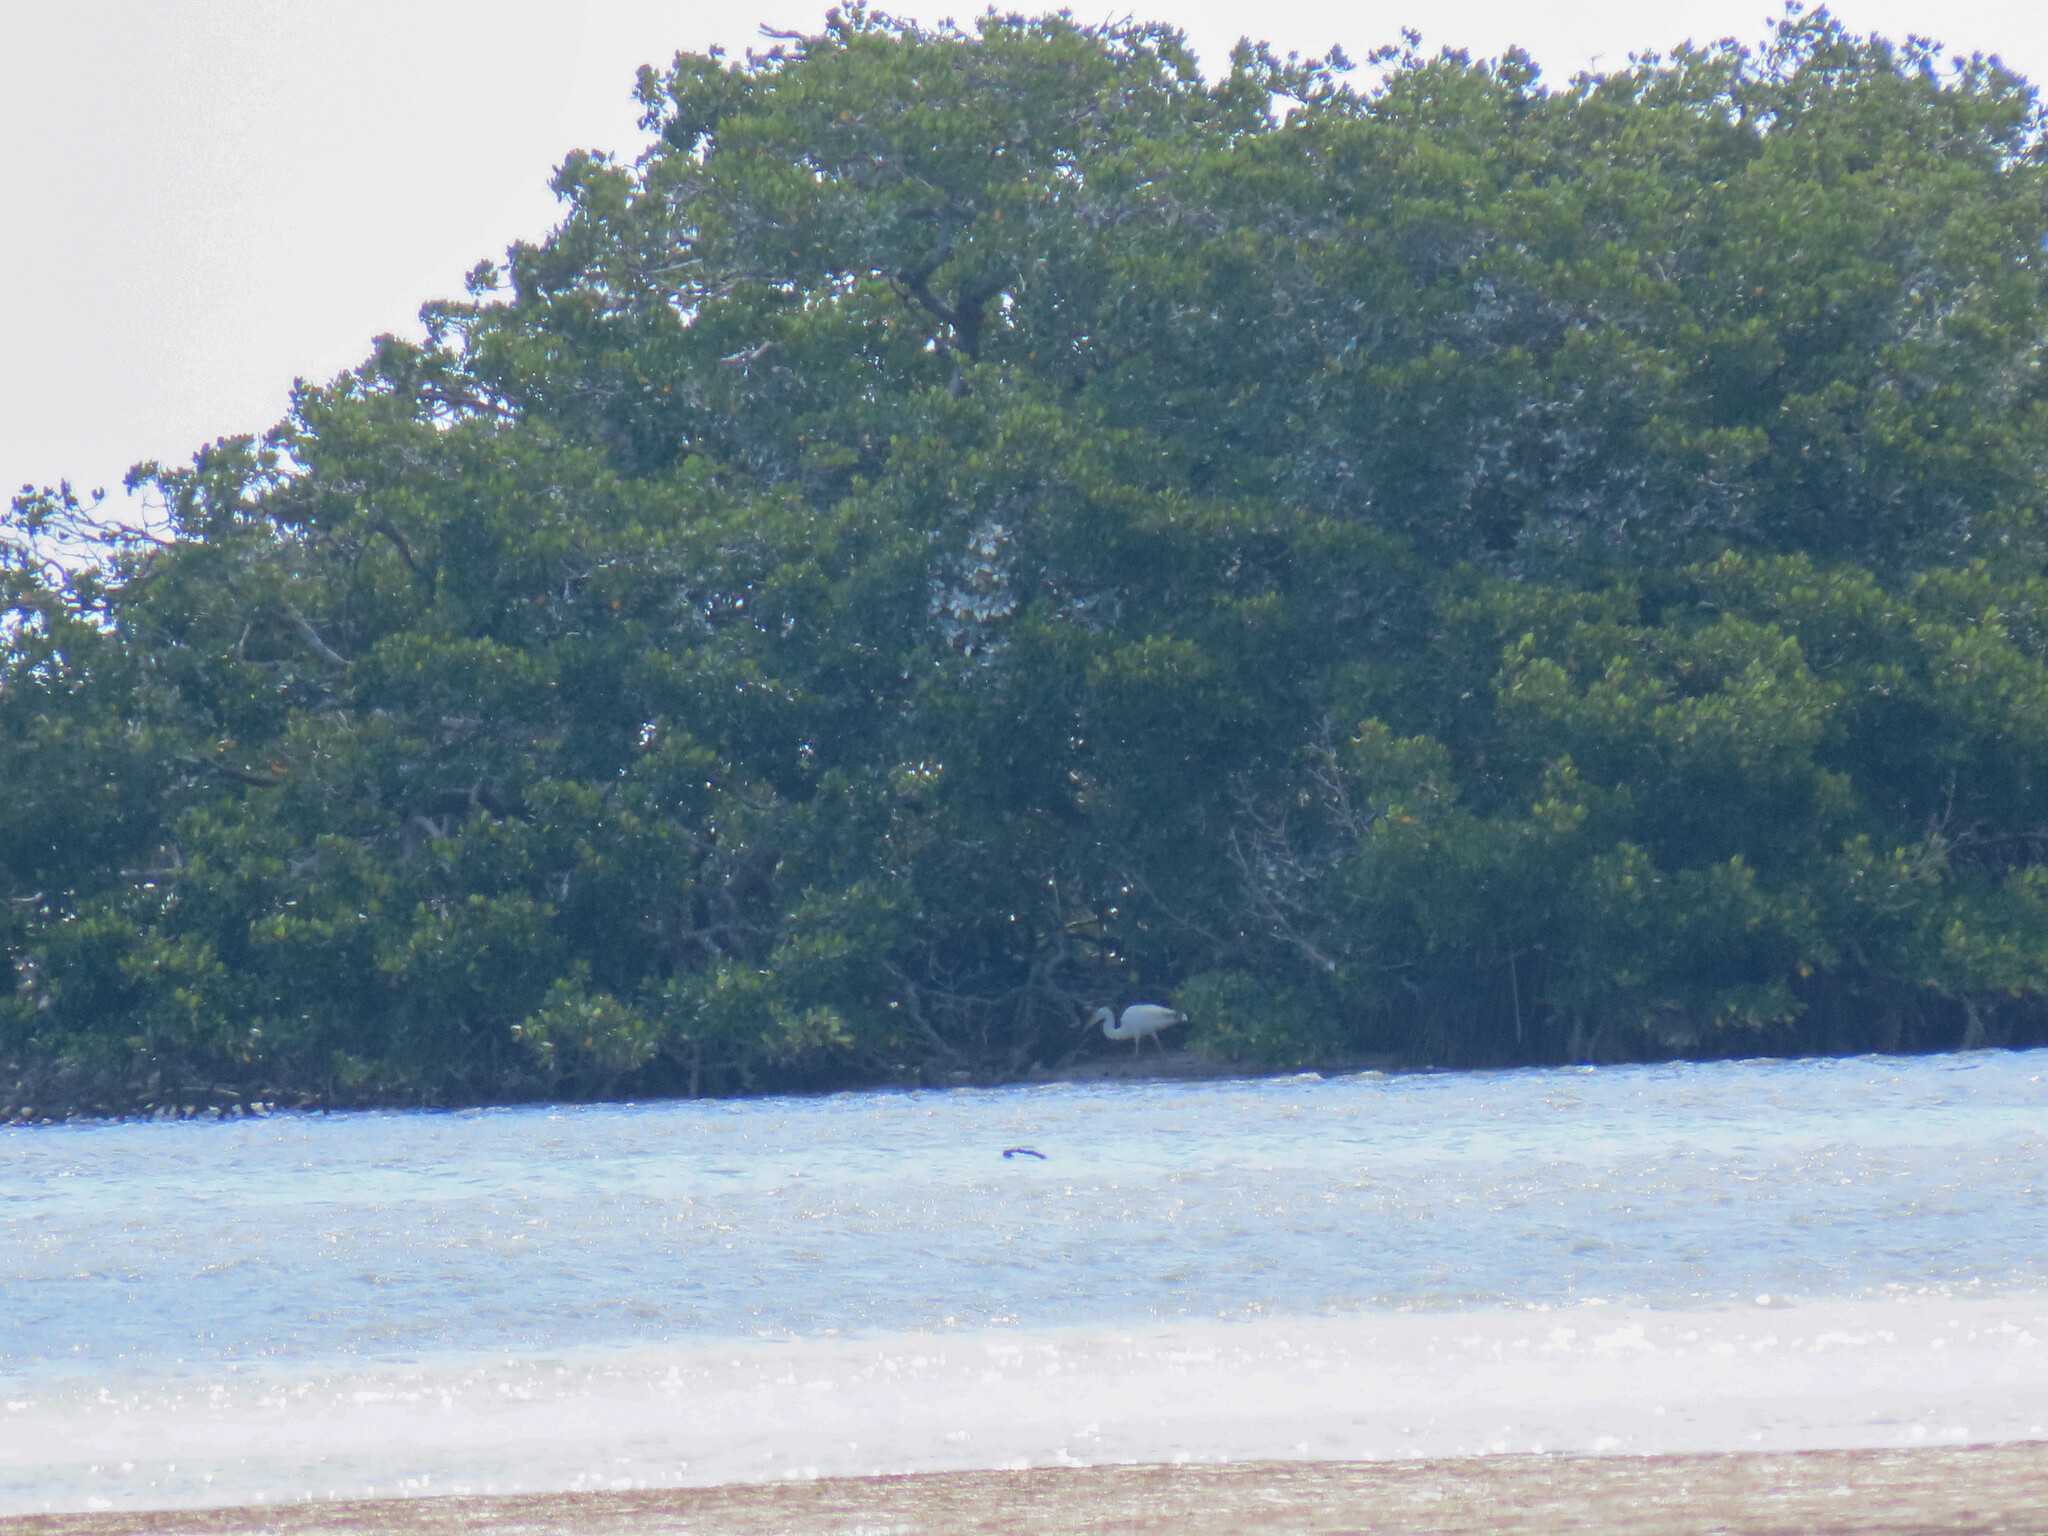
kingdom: Animalia
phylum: Chordata
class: Aves
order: Pelecaniformes
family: Ardeidae
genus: Ardea
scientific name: Ardea herodias
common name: Great blue heron
